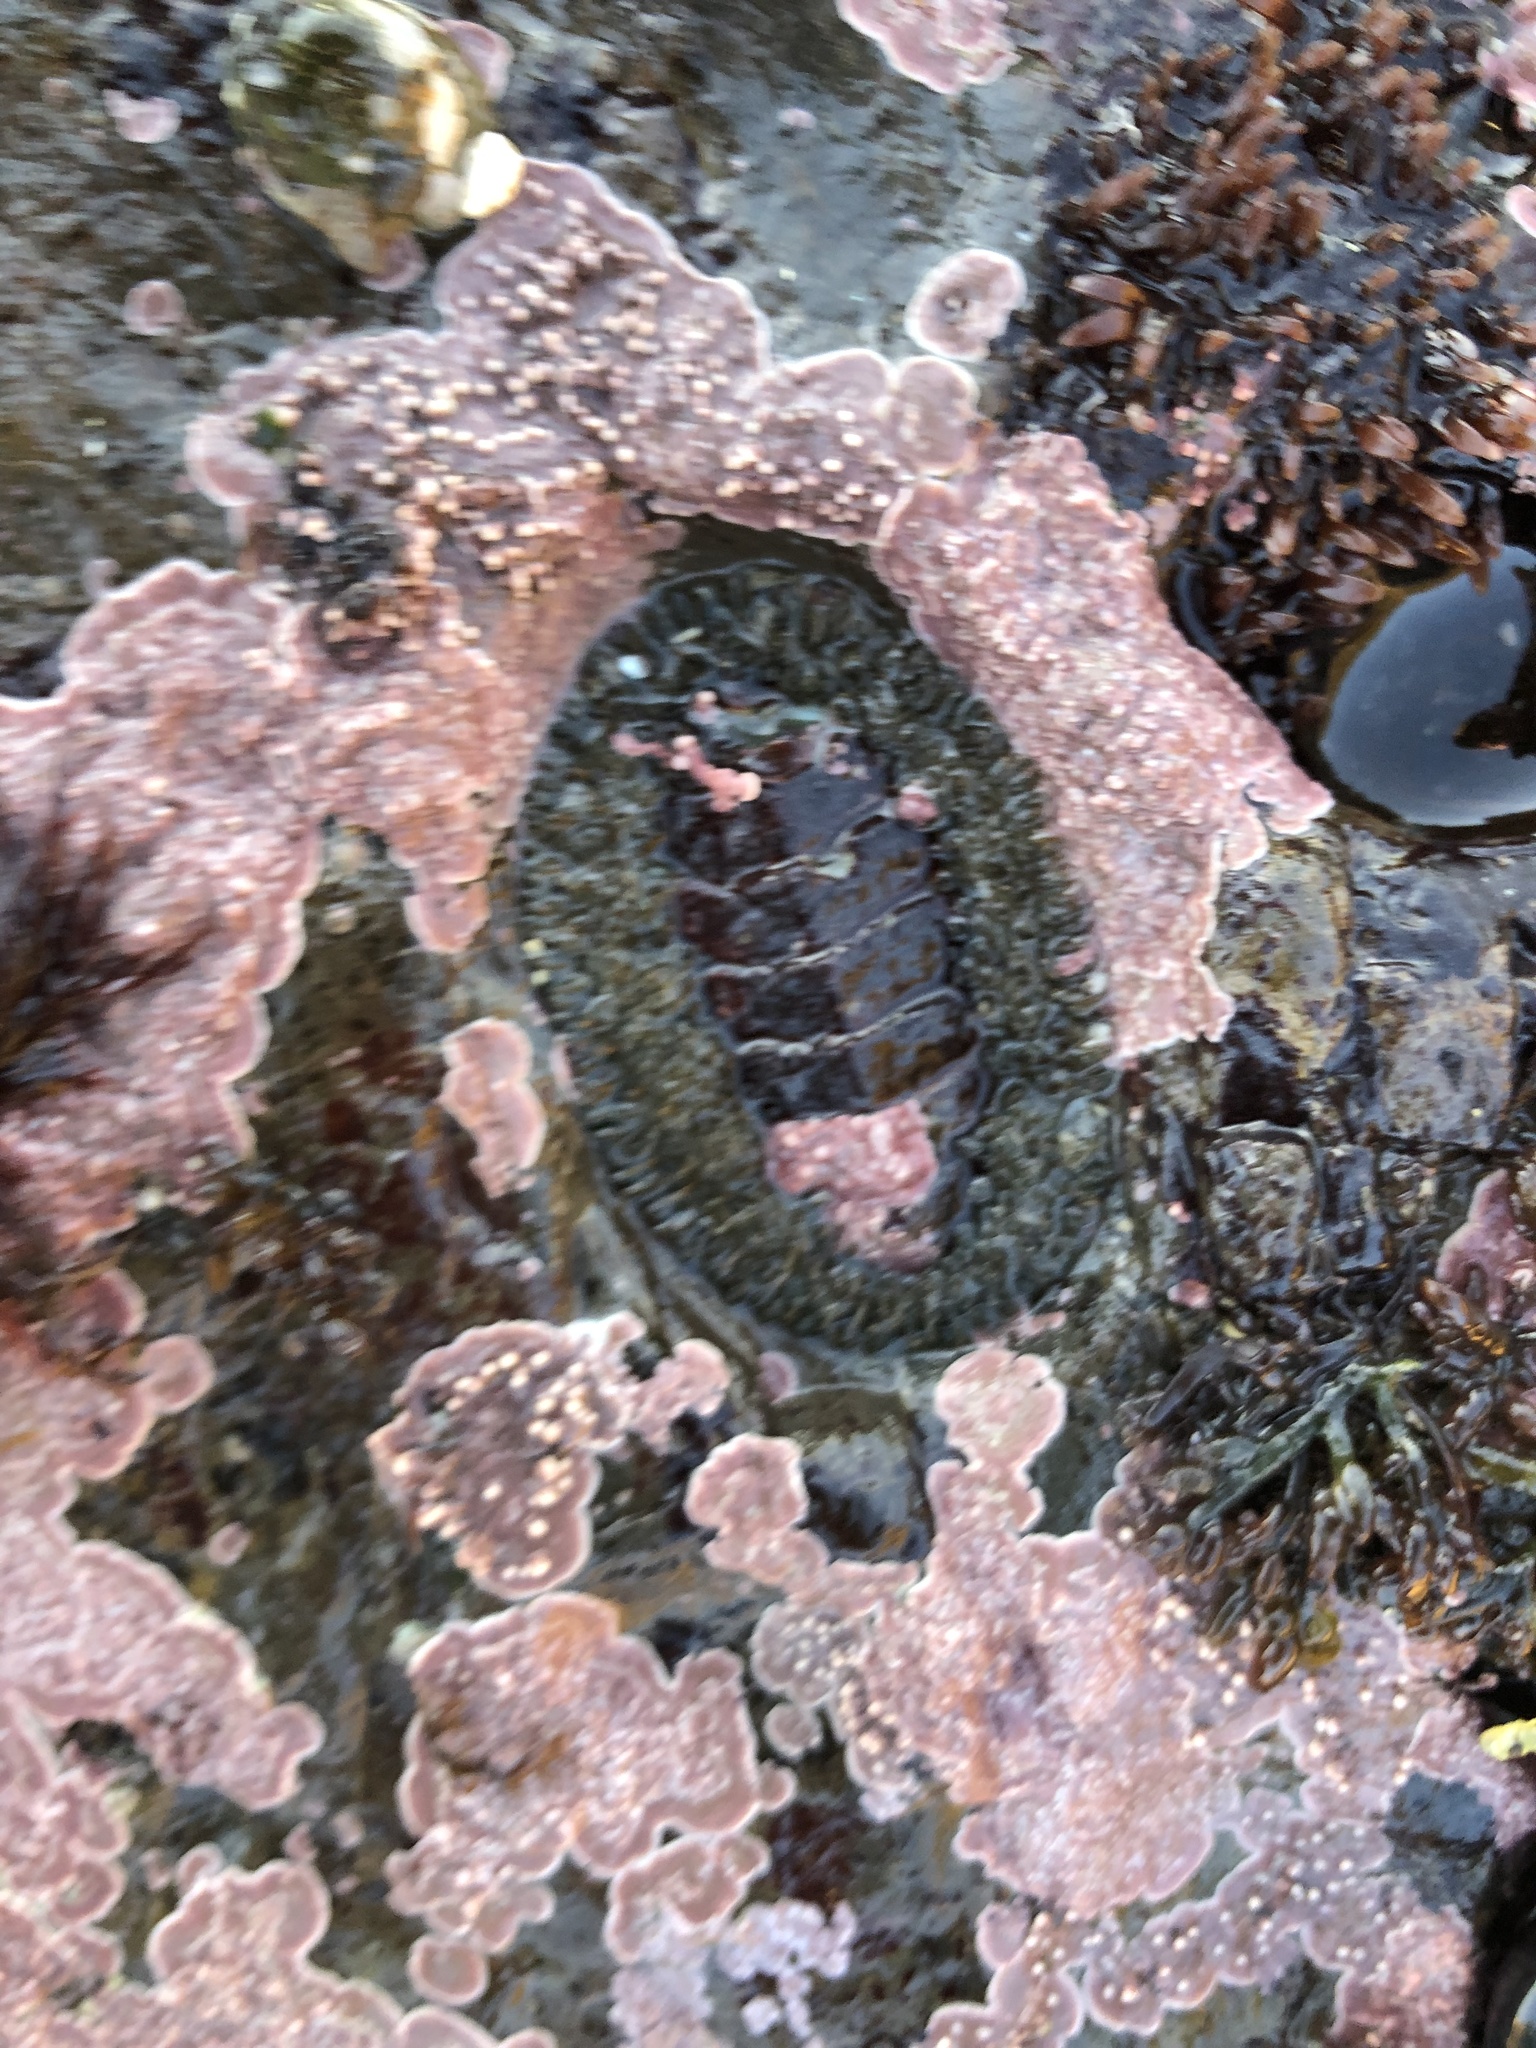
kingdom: Animalia
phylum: Mollusca
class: Polyplacophora
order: Chitonida
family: Mopaliidae
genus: Mopalia
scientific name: Mopalia muscosa
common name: Mossy chiton
